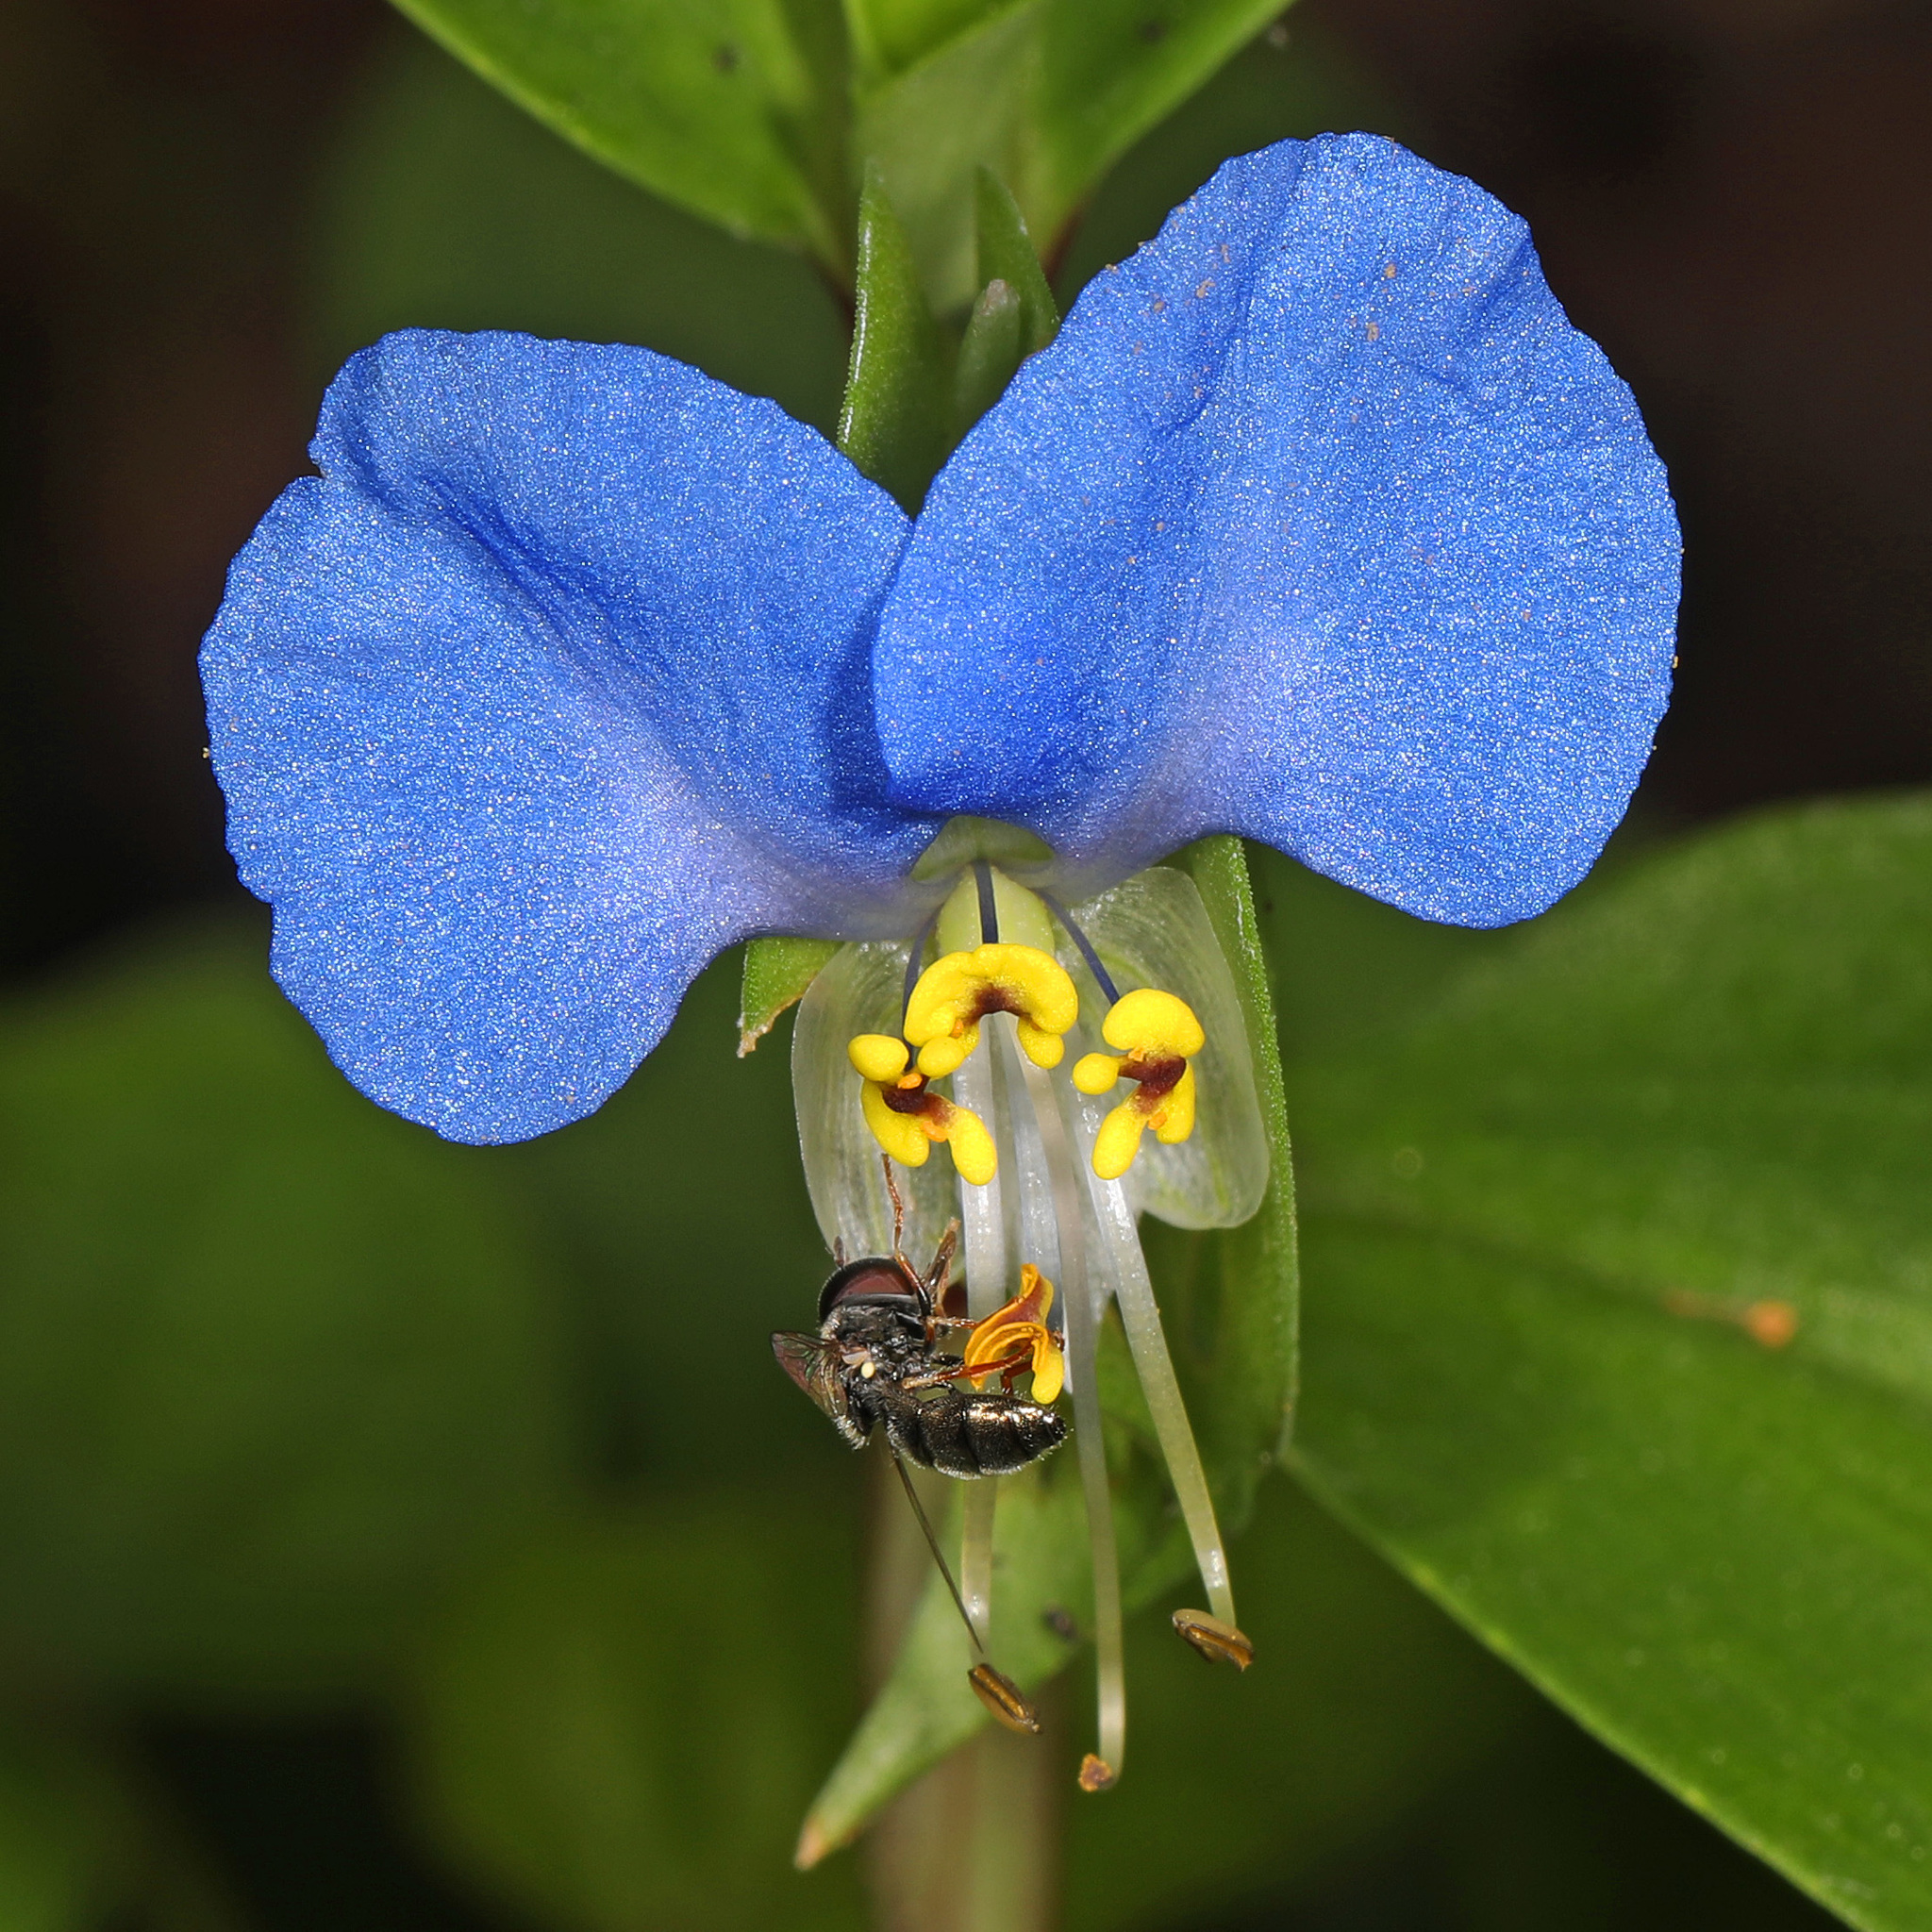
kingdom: Plantae
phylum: Tracheophyta
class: Liliopsida
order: Commelinales
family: Commelinaceae
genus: Commelina
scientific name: Commelina communis
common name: Asiatic dayflower
